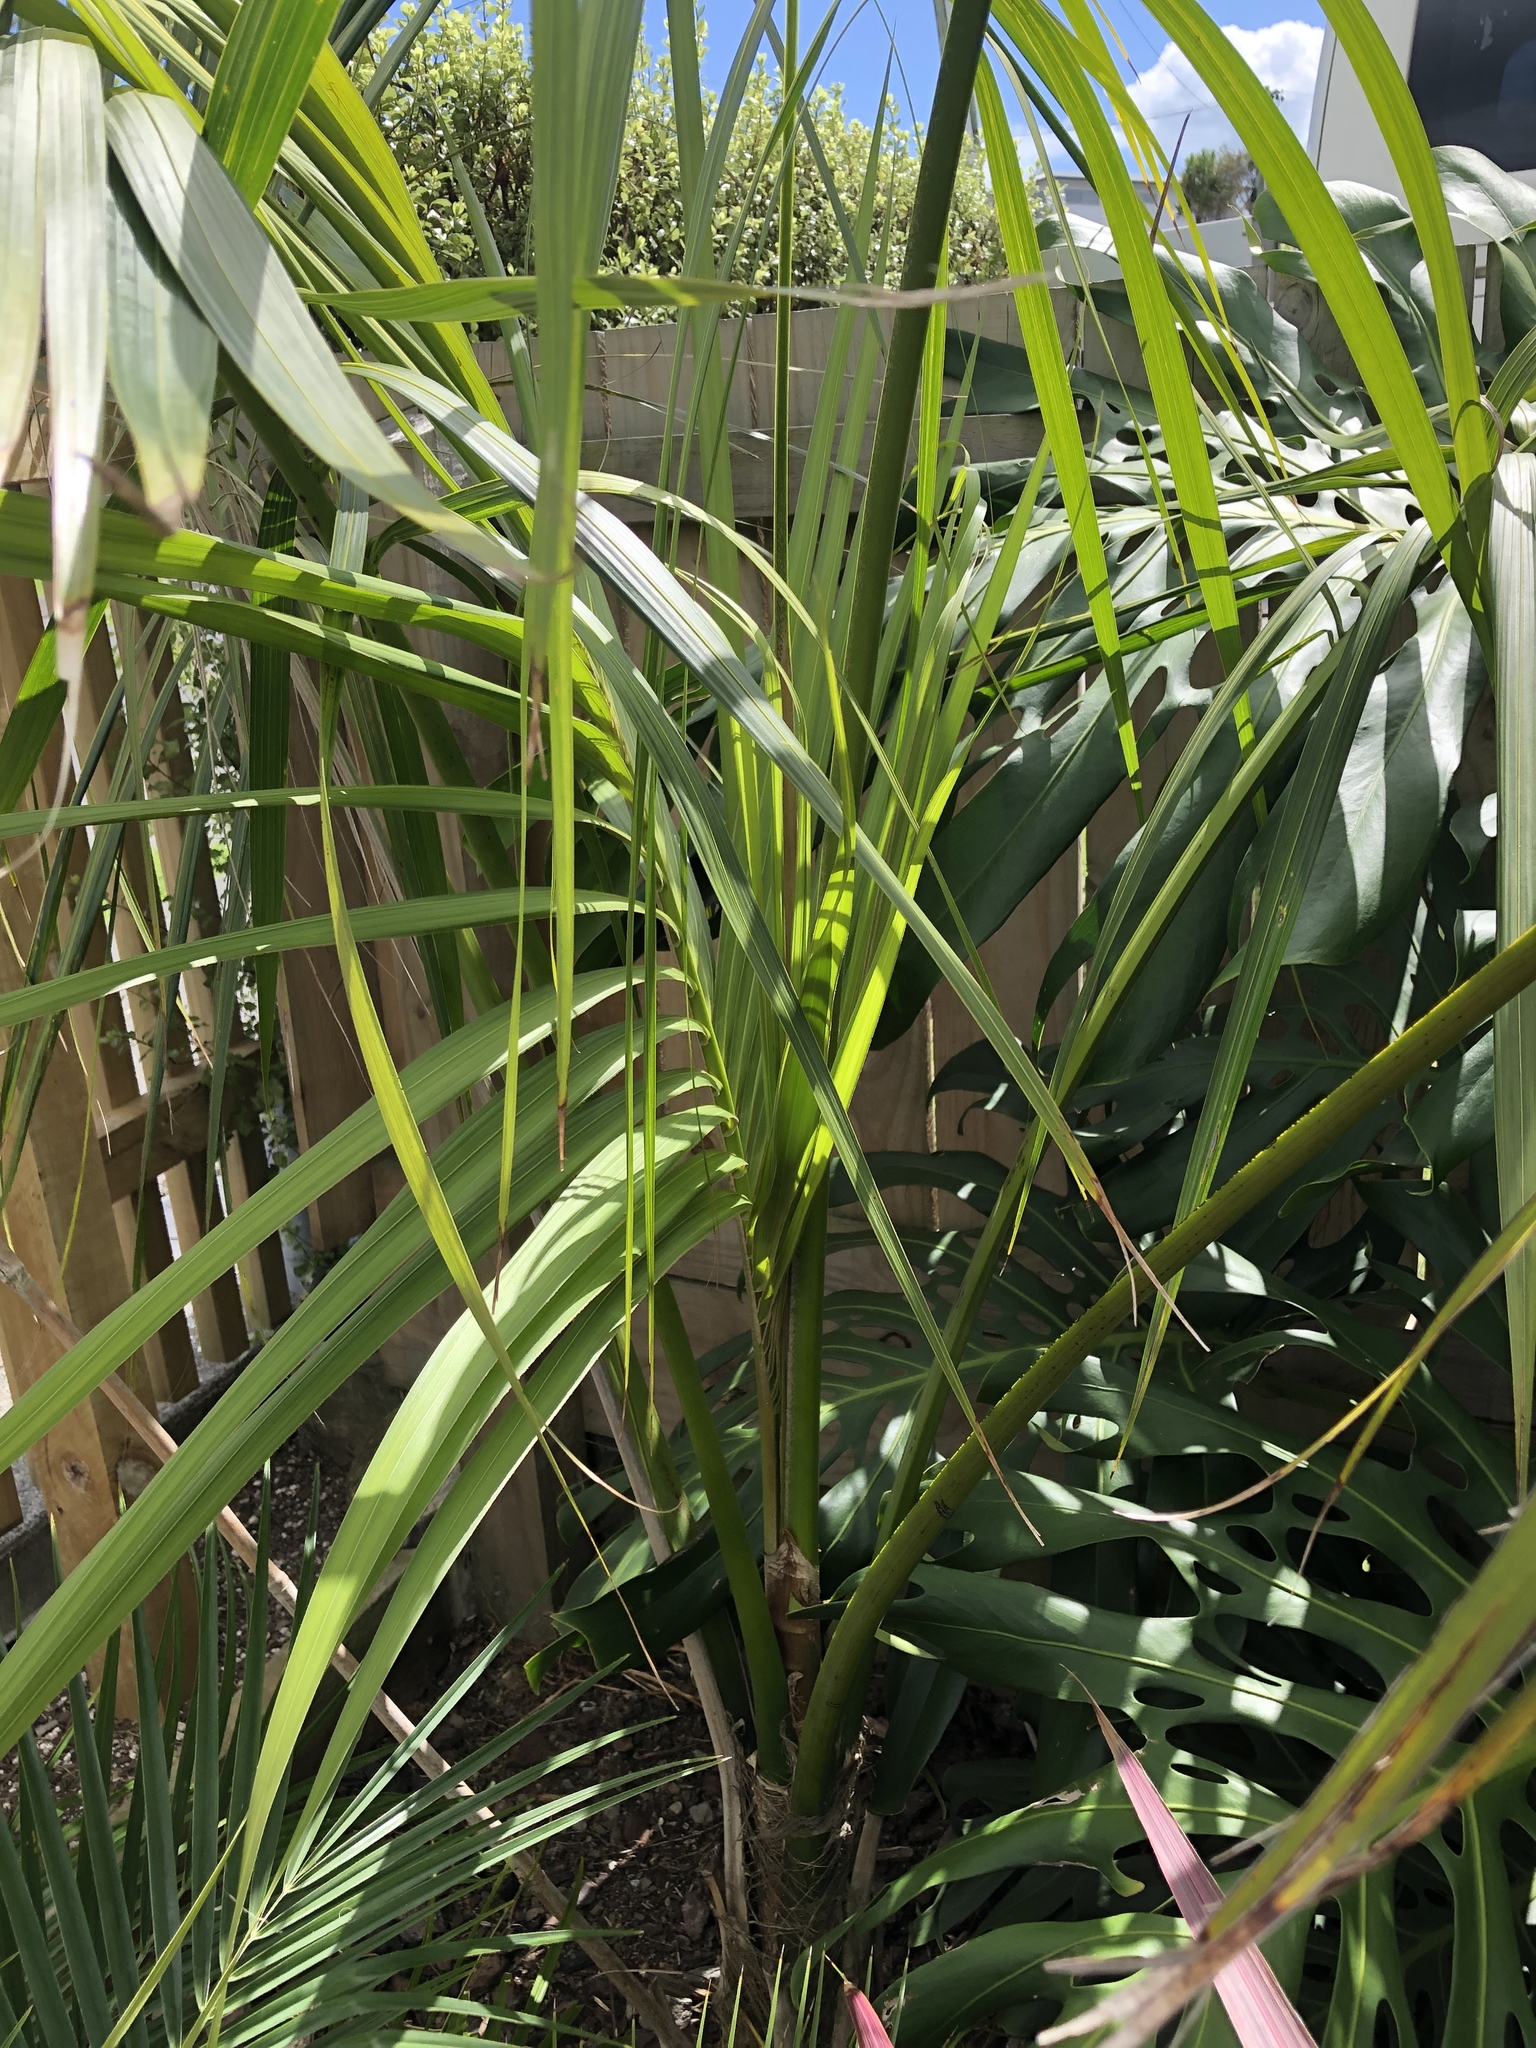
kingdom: Plantae
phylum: Tracheophyta
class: Liliopsida
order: Arecales
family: Arecaceae
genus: Howea
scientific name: Howea forsteriana
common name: Kentia palm
